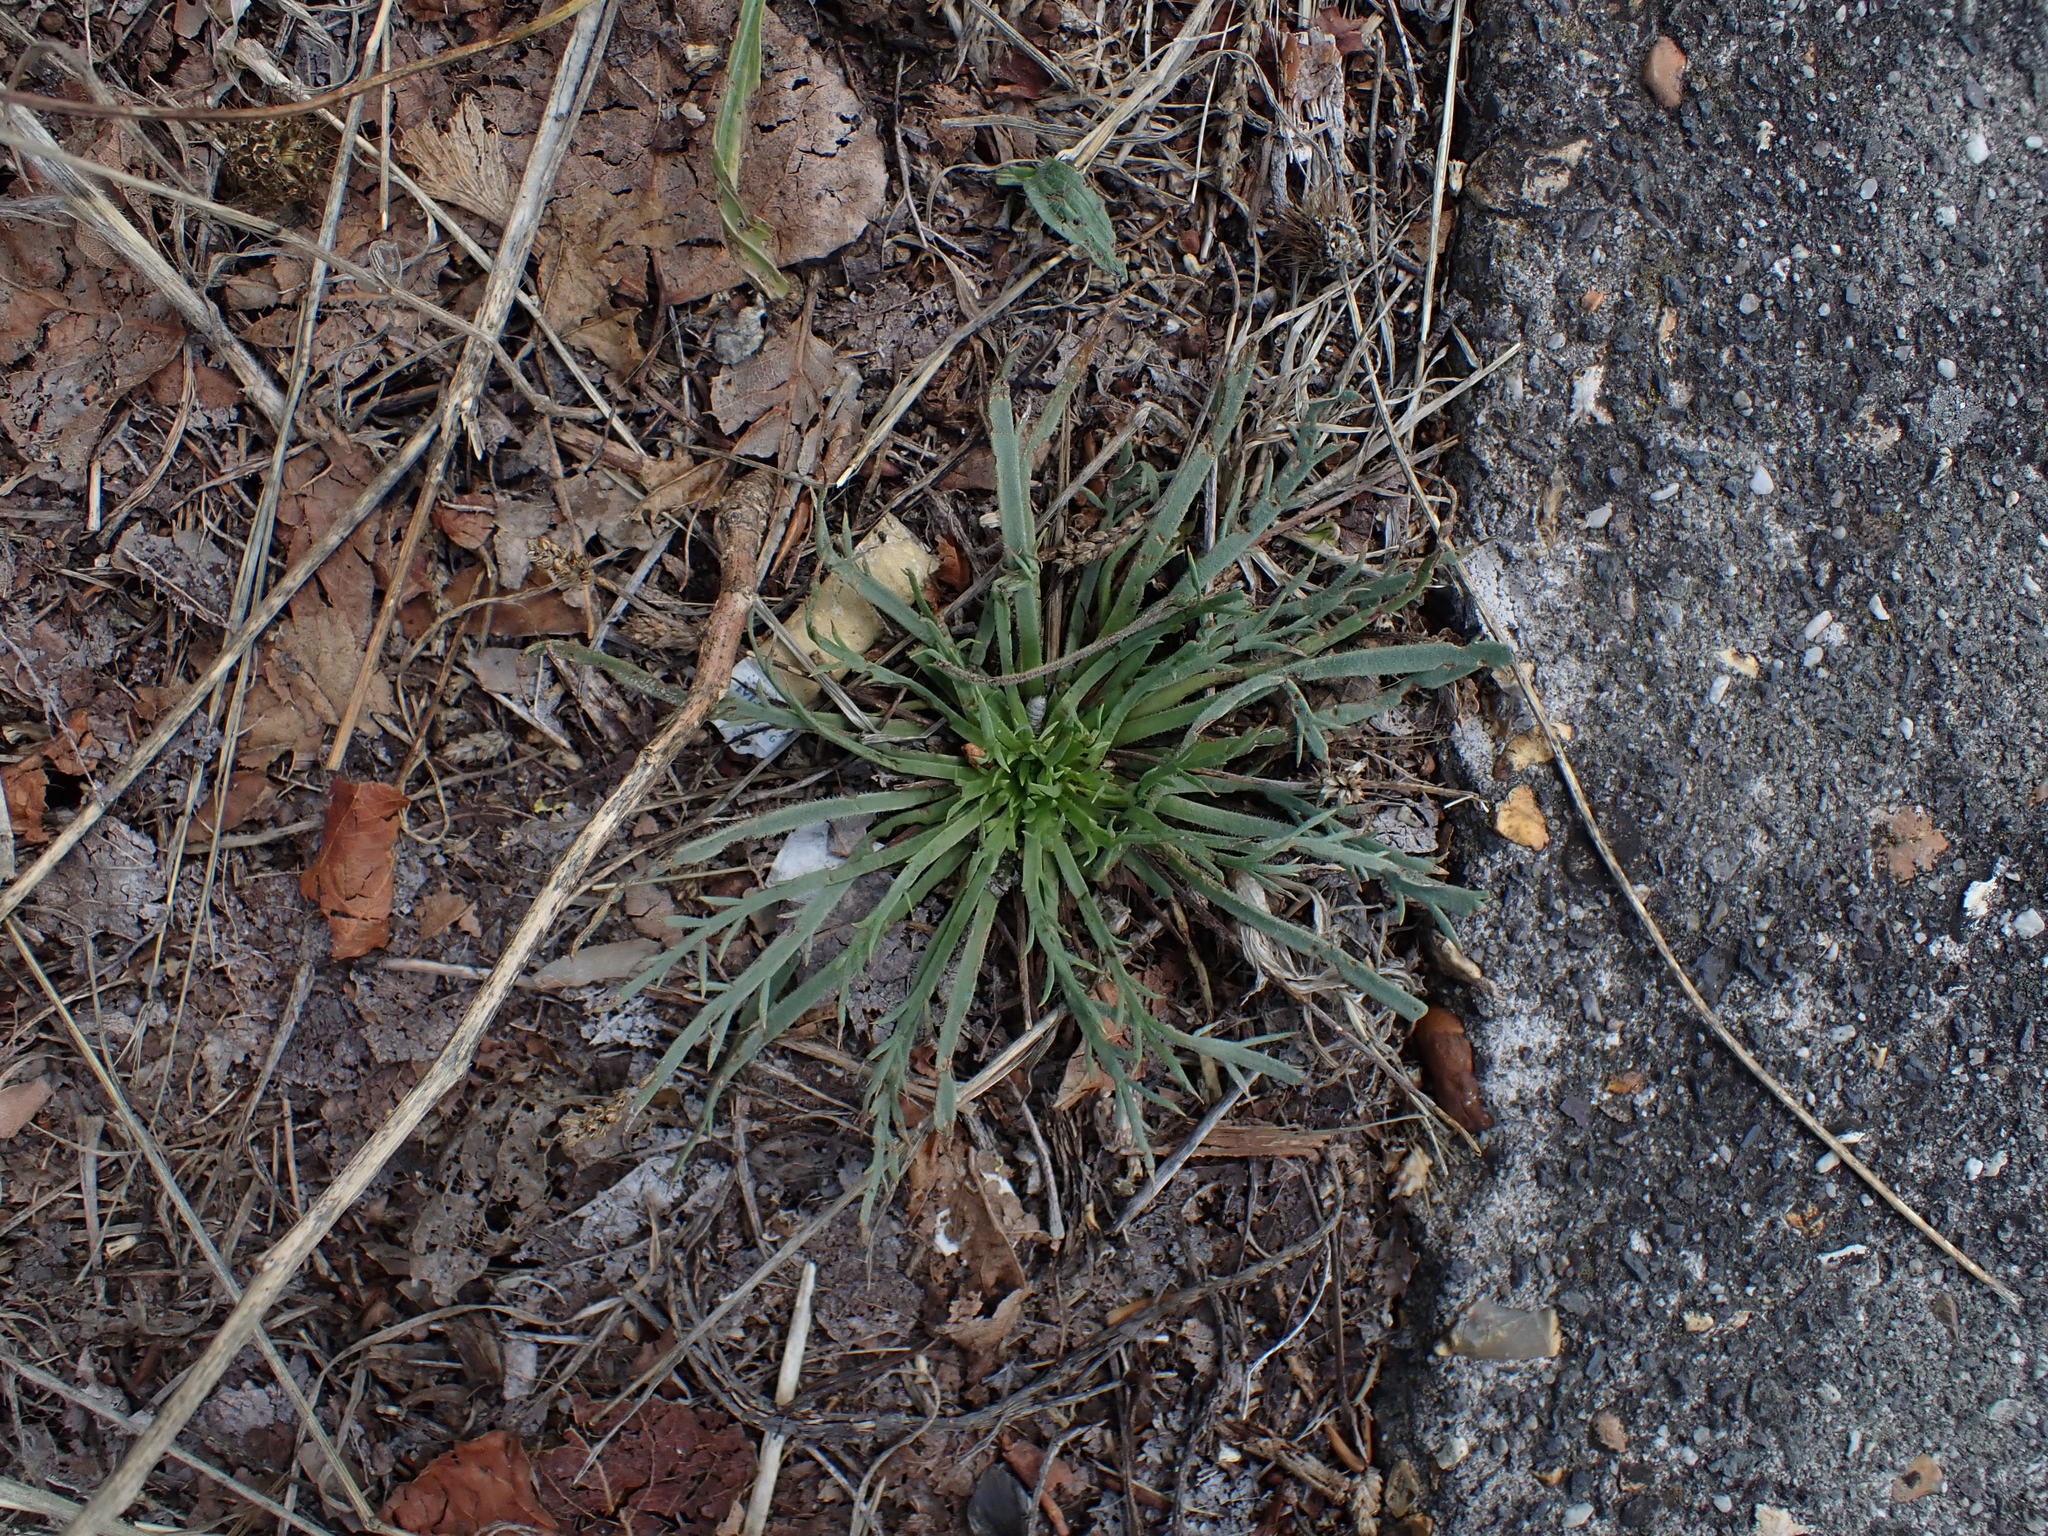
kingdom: Plantae
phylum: Tracheophyta
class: Magnoliopsida
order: Lamiales
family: Plantaginaceae
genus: Plantago
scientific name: Plantago coronopus
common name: Buck's-horn plantain
